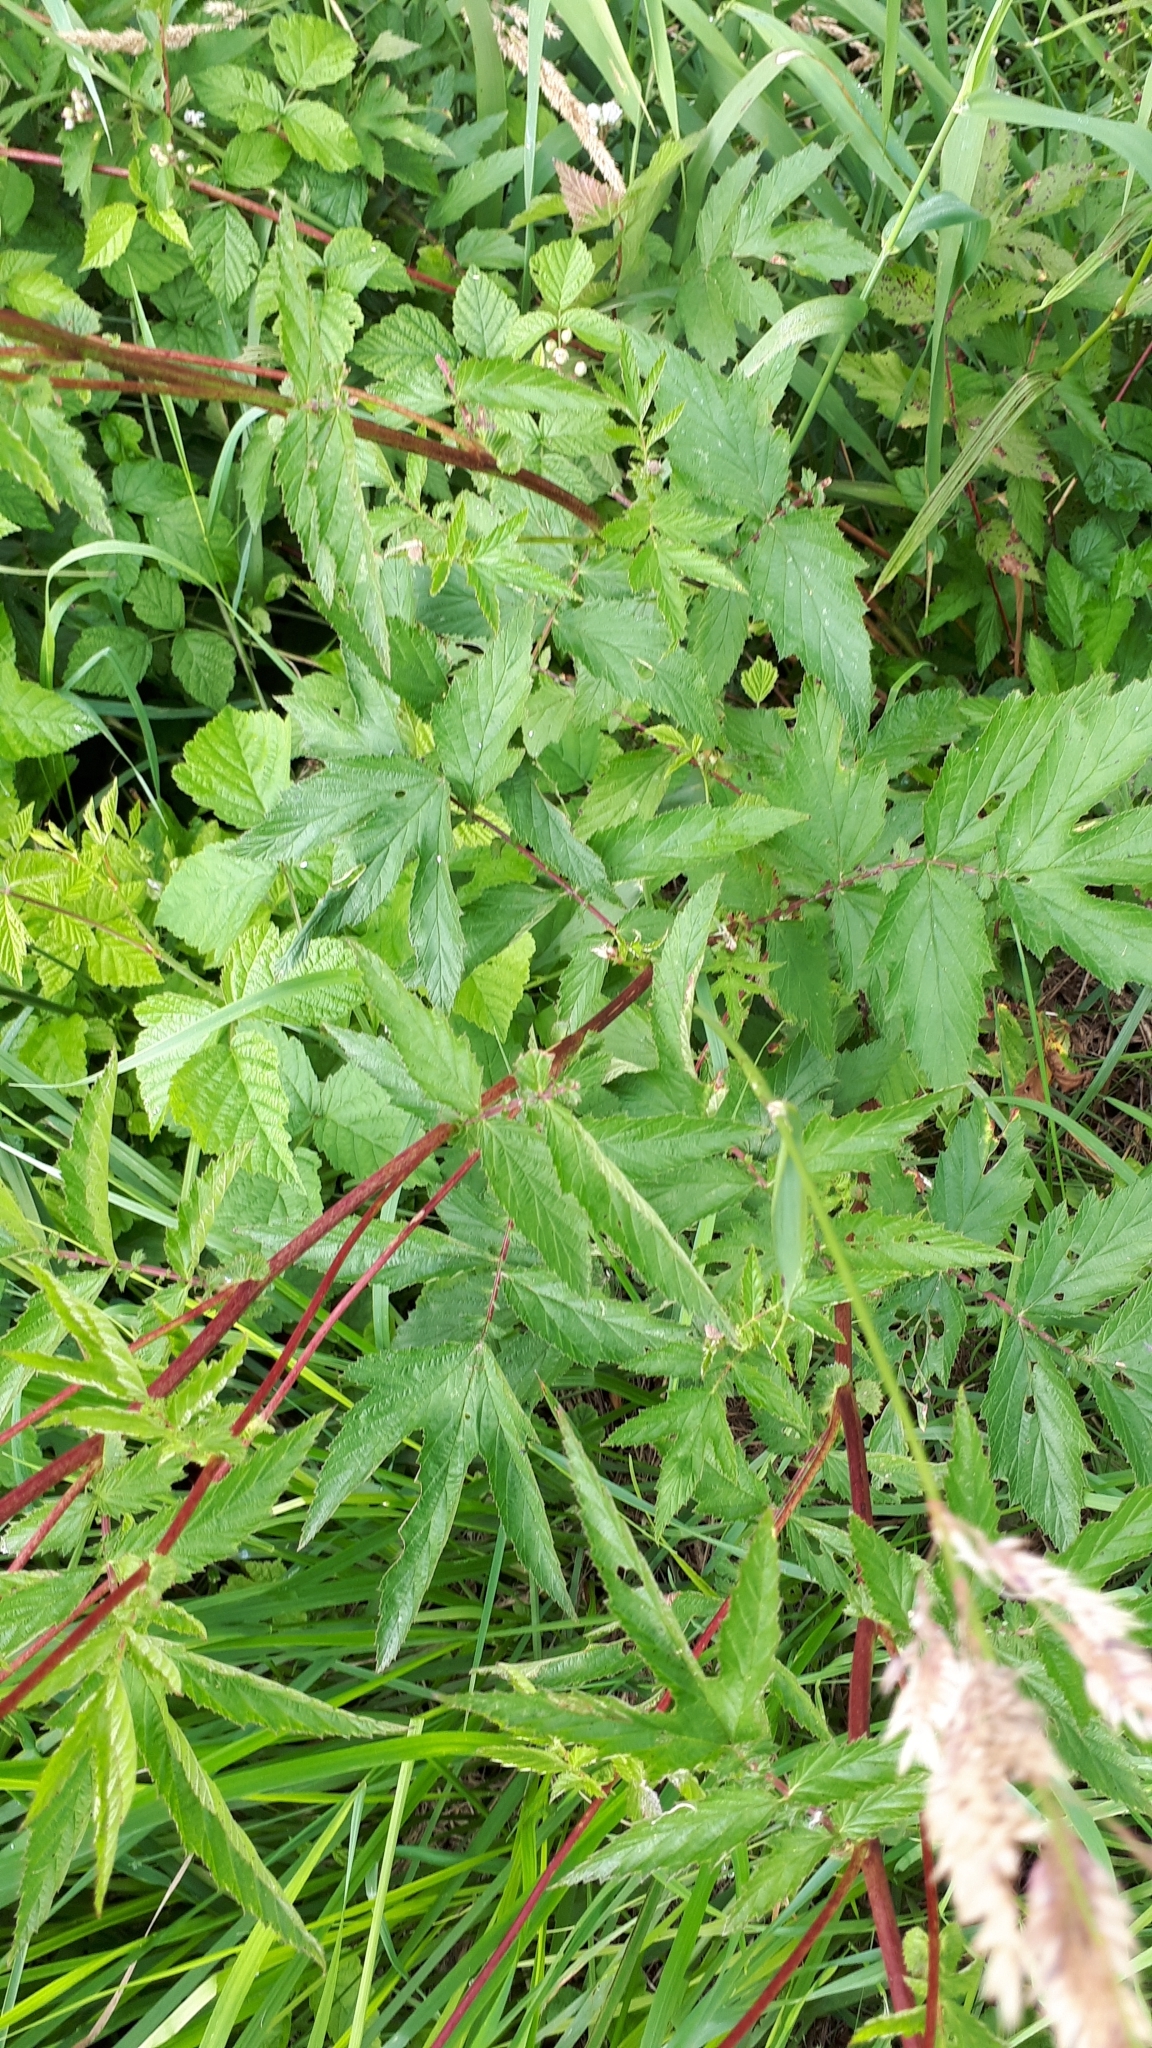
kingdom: Plantae
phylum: Tracheophyta
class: Magnoliopsida
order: Rosales
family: Rosaceae
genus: Filipendula
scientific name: Filipendula ulmaria
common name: Meadowsweet
